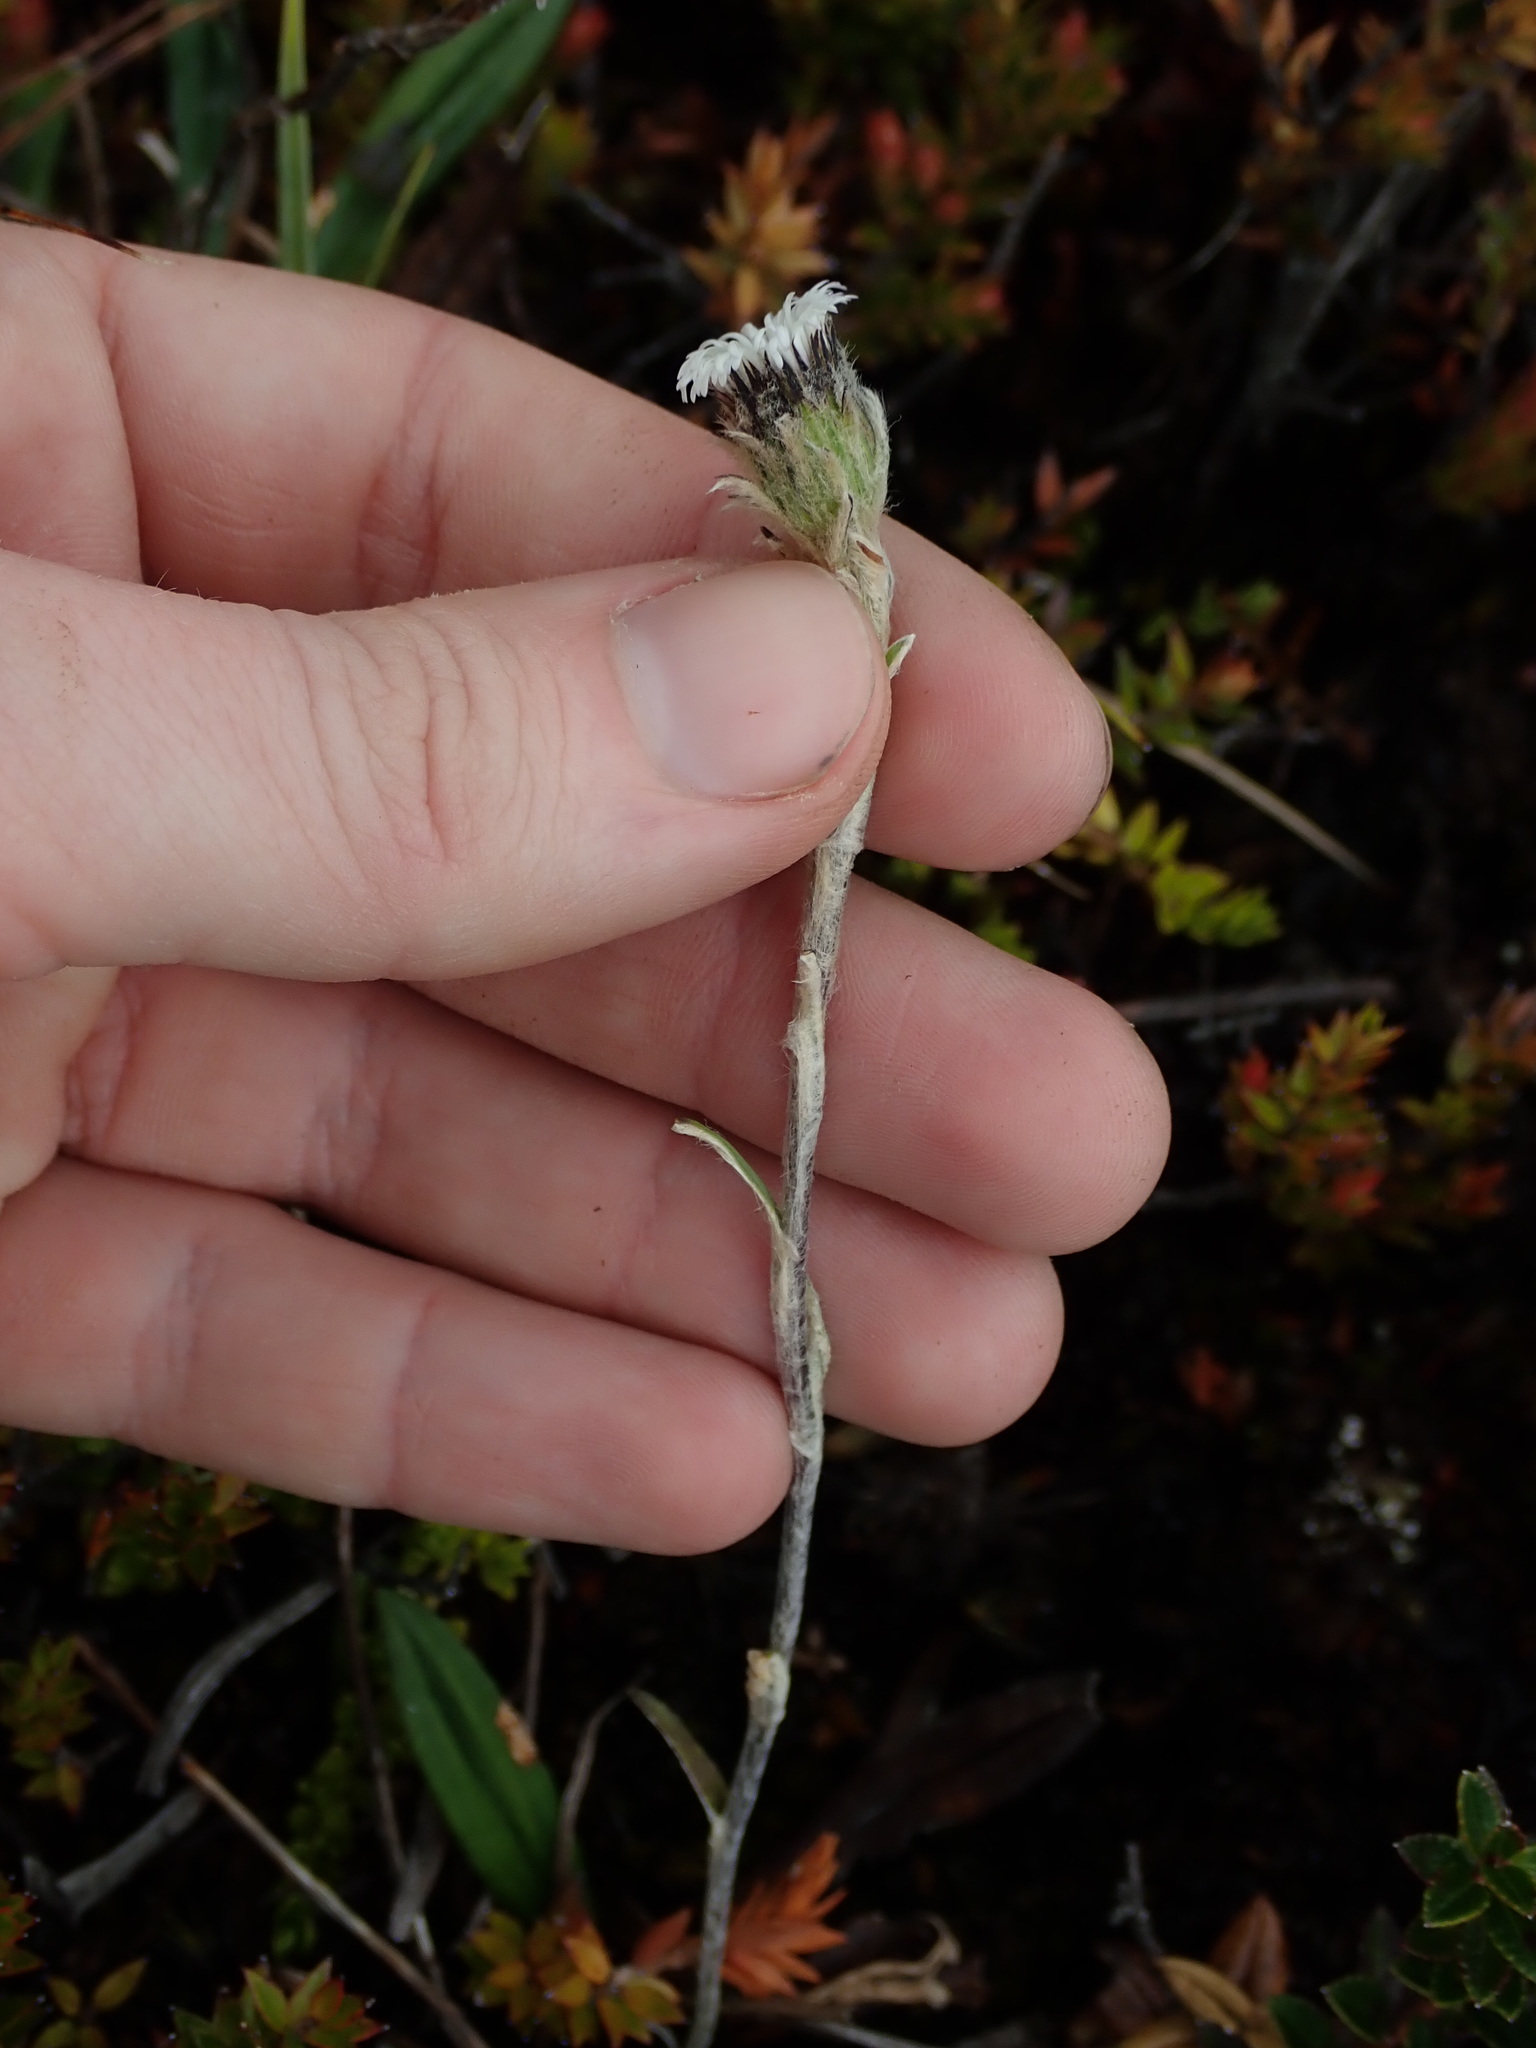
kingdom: Plantae
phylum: Tracheophyta
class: Magnoliopsida
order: Asterales
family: Asteraceae
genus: Oritrophium
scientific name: Oritrophium peruvianum
